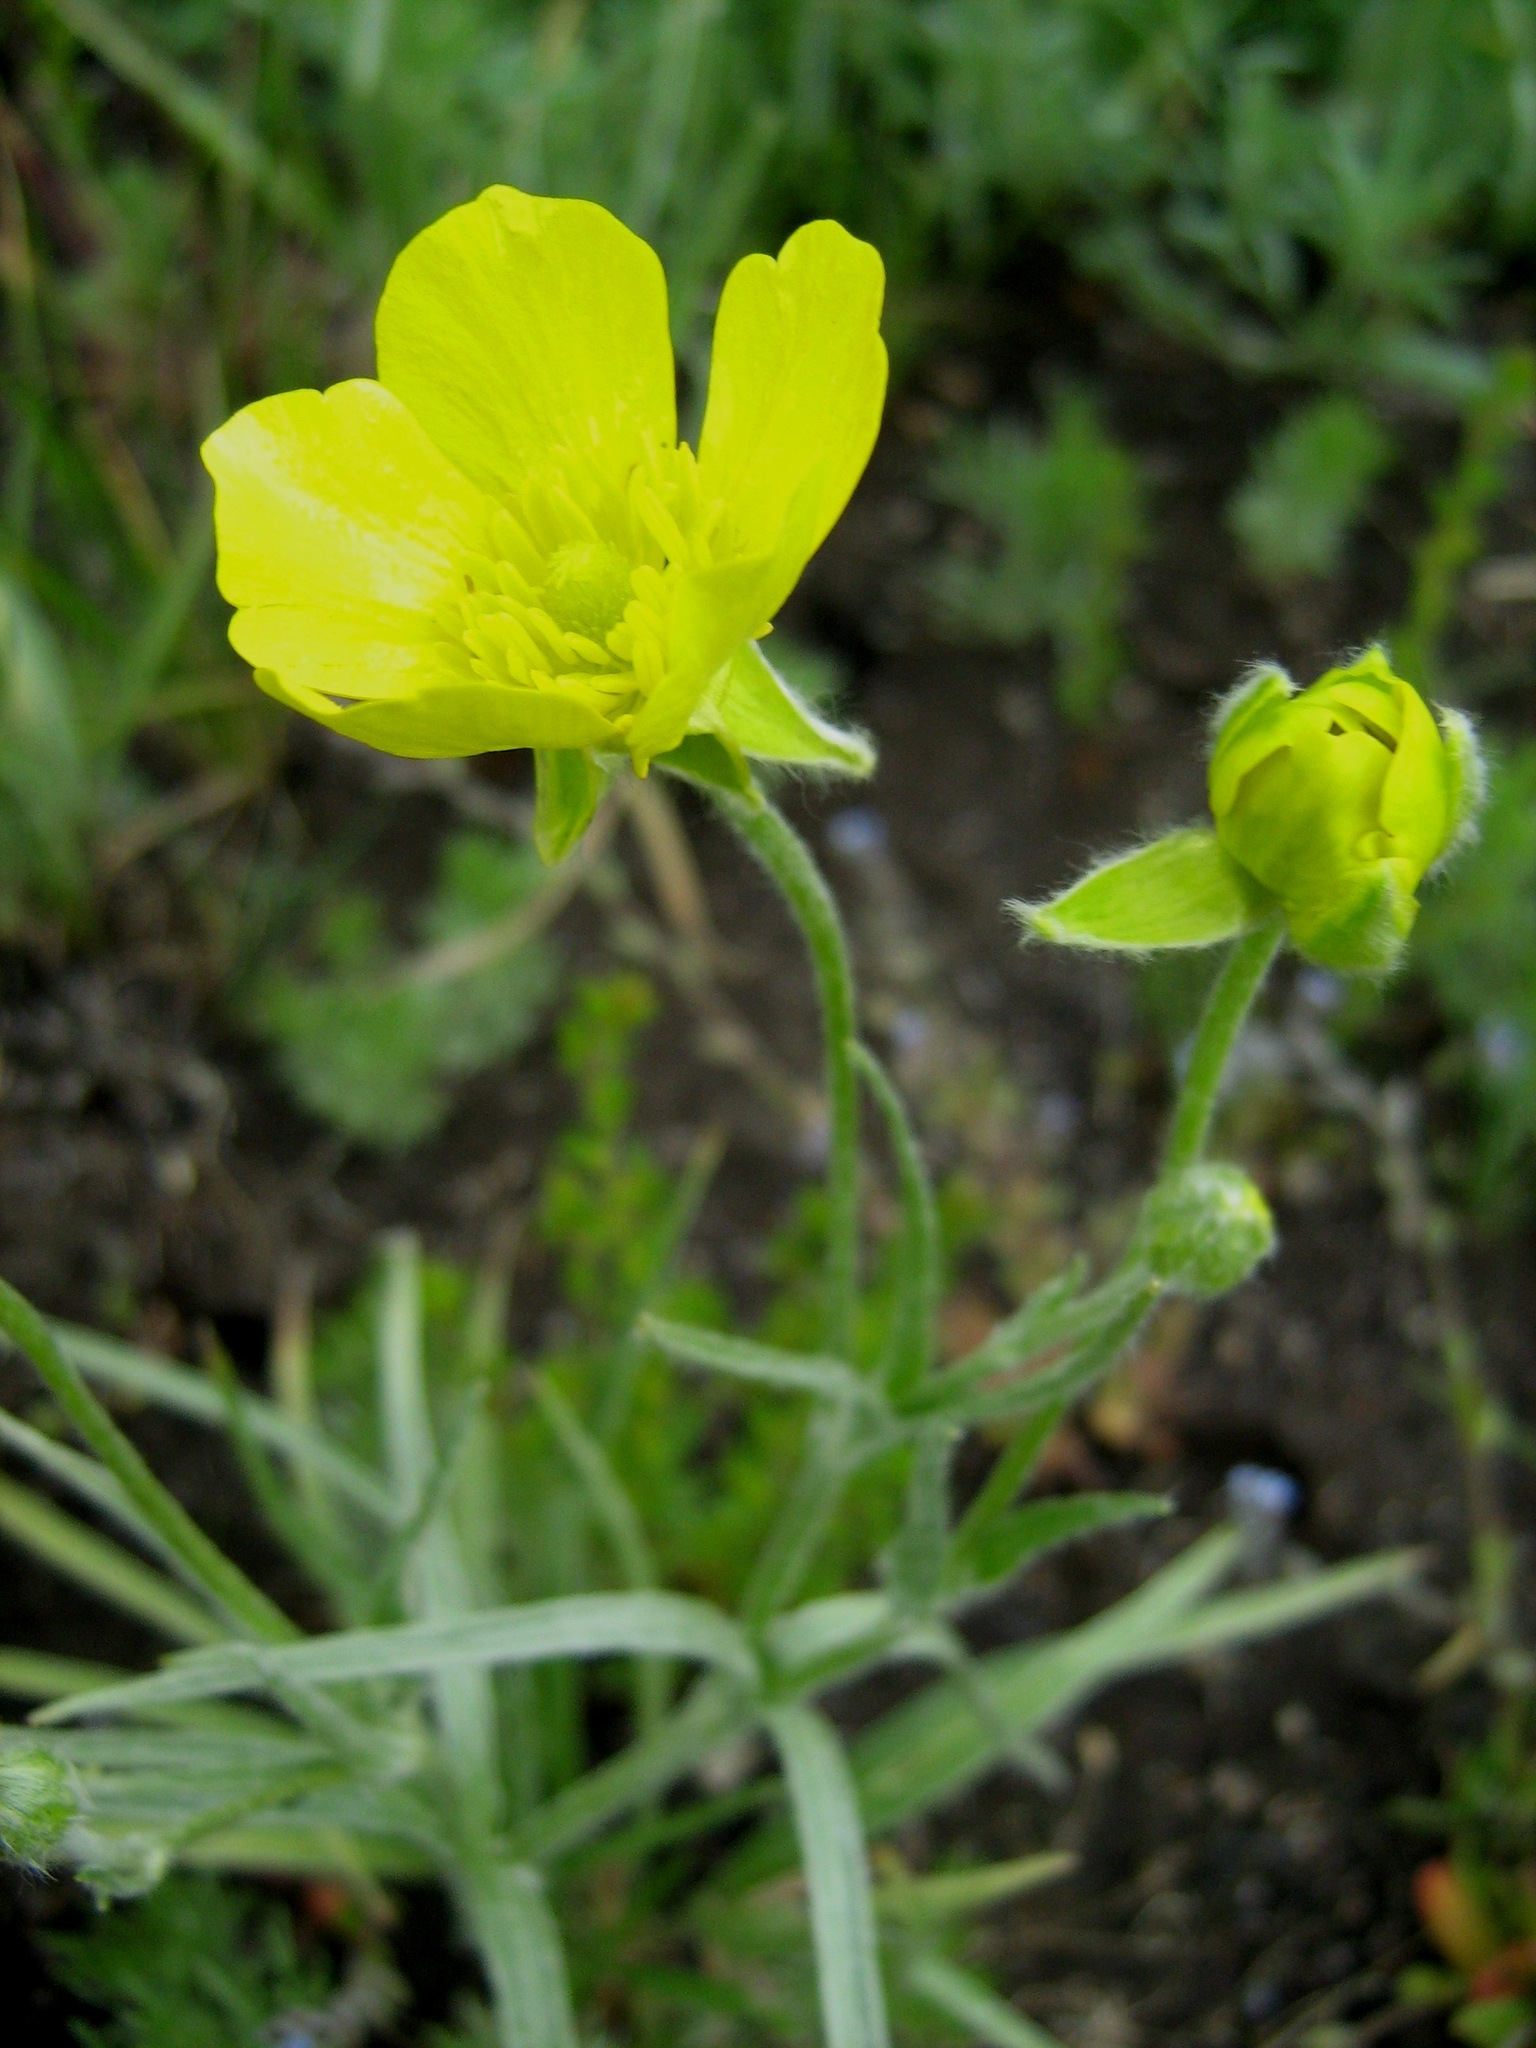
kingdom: Plantae
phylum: Tracheophyta
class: Magnoliopsida
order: Ranunculales
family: Ranunculaceae
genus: Ranunculus
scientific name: Ranunculus illyricus
